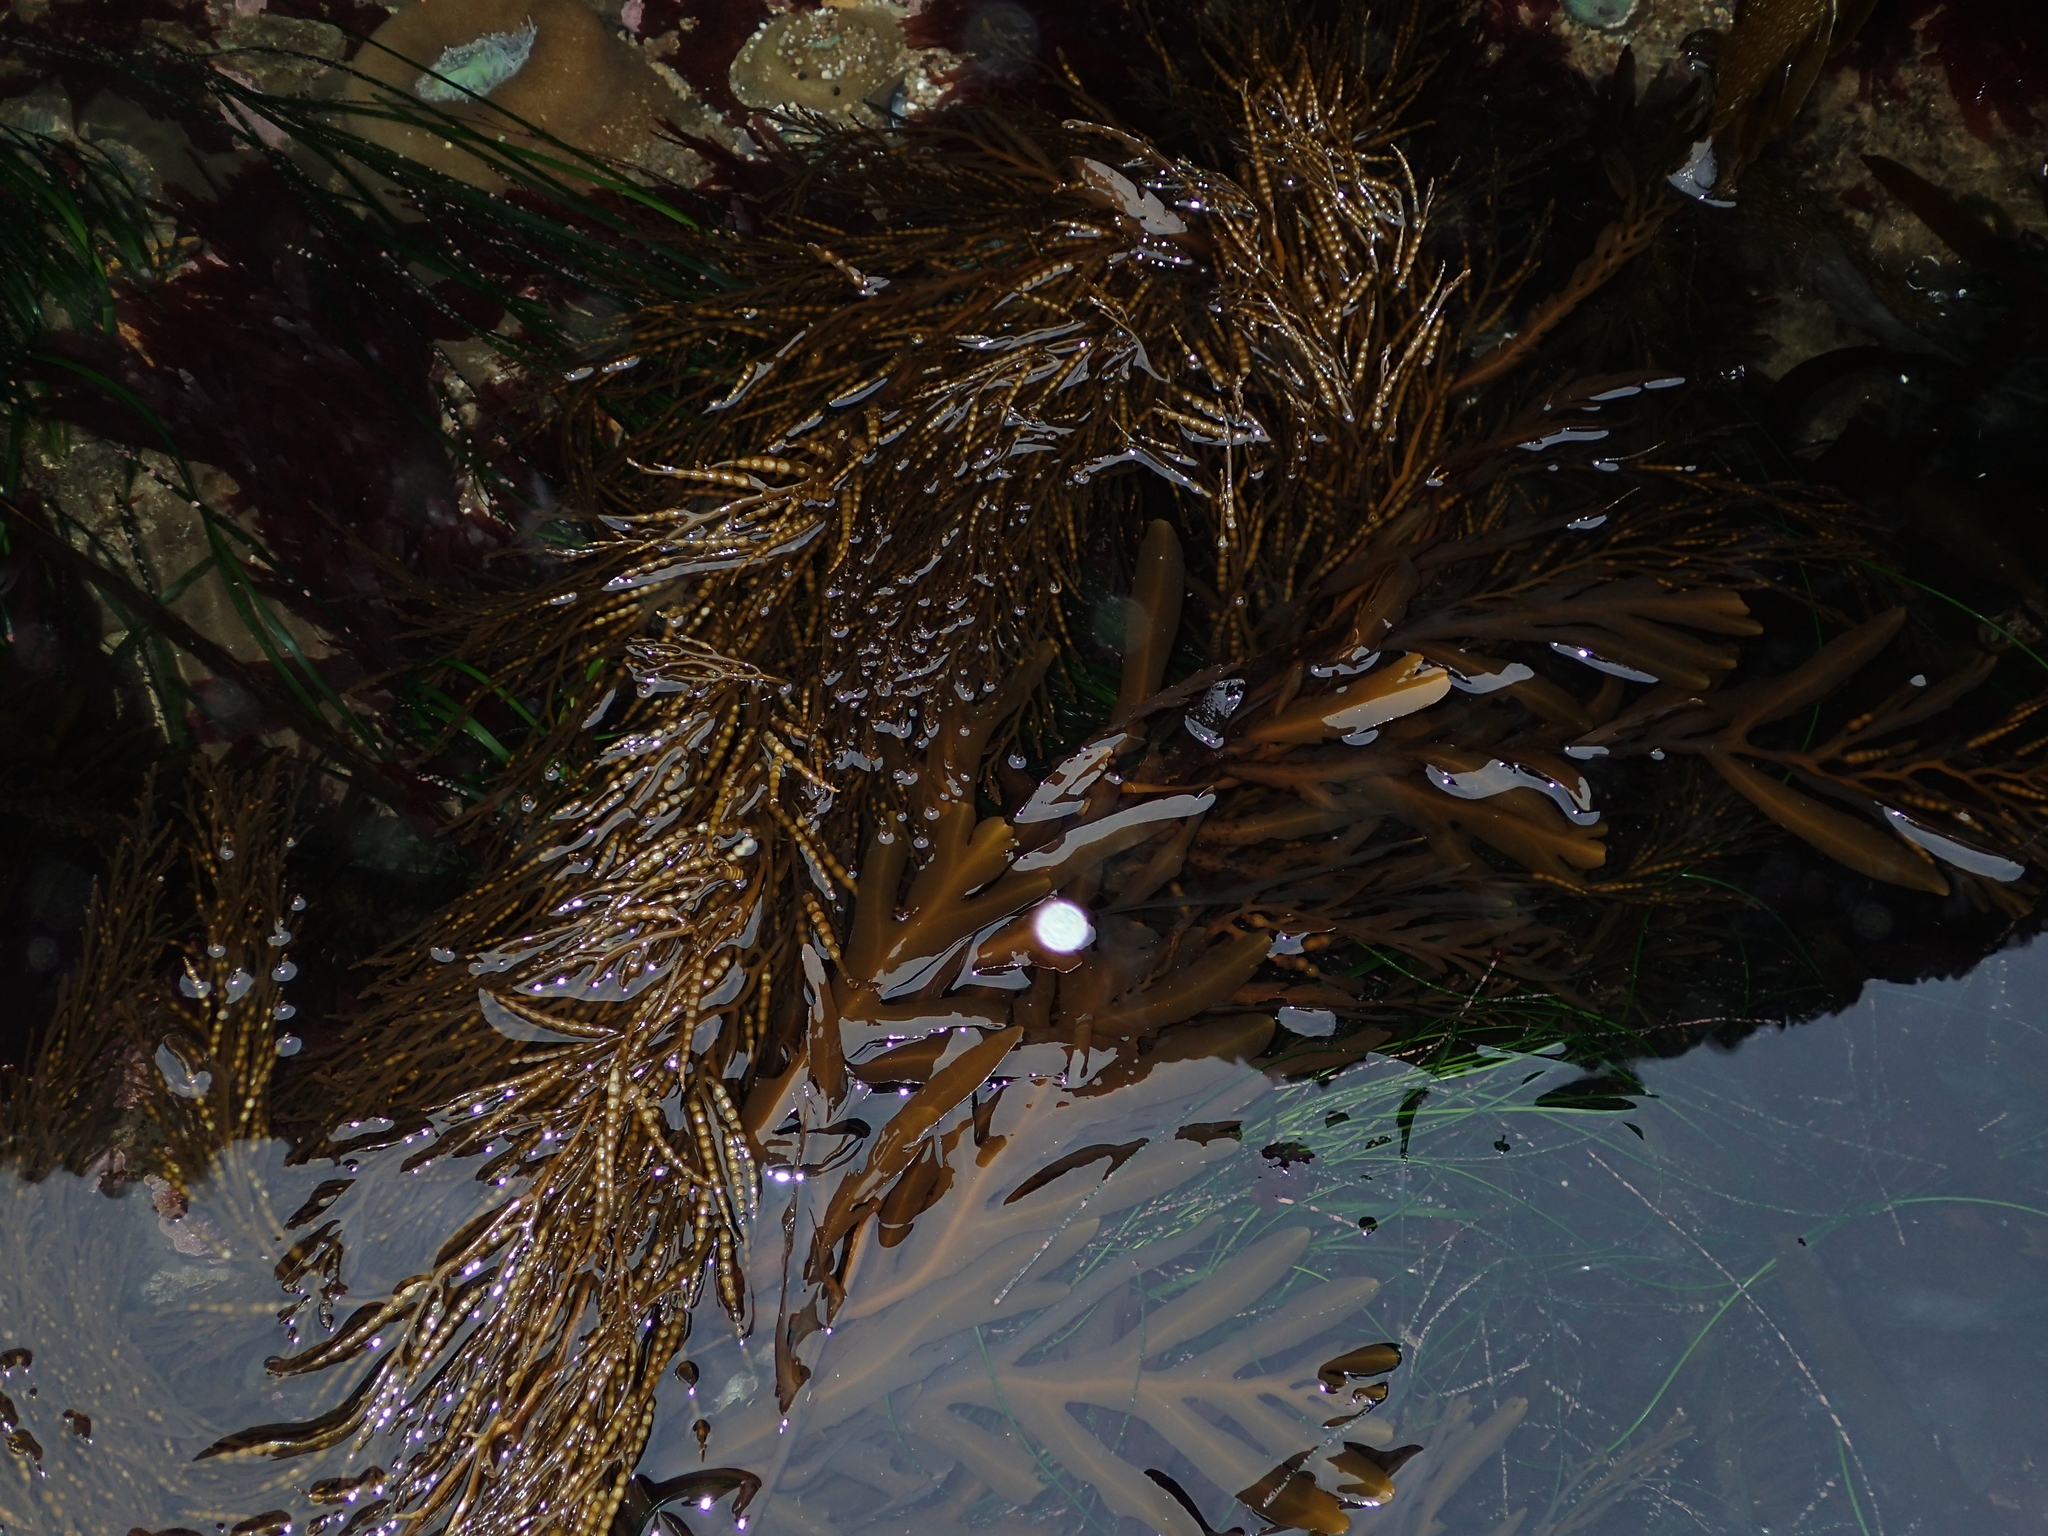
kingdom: Chromista
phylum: Ochrophyta
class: Phaeophyceae
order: Fucales
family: Sargassaceae
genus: Stephanocystis
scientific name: Stephanocystis
